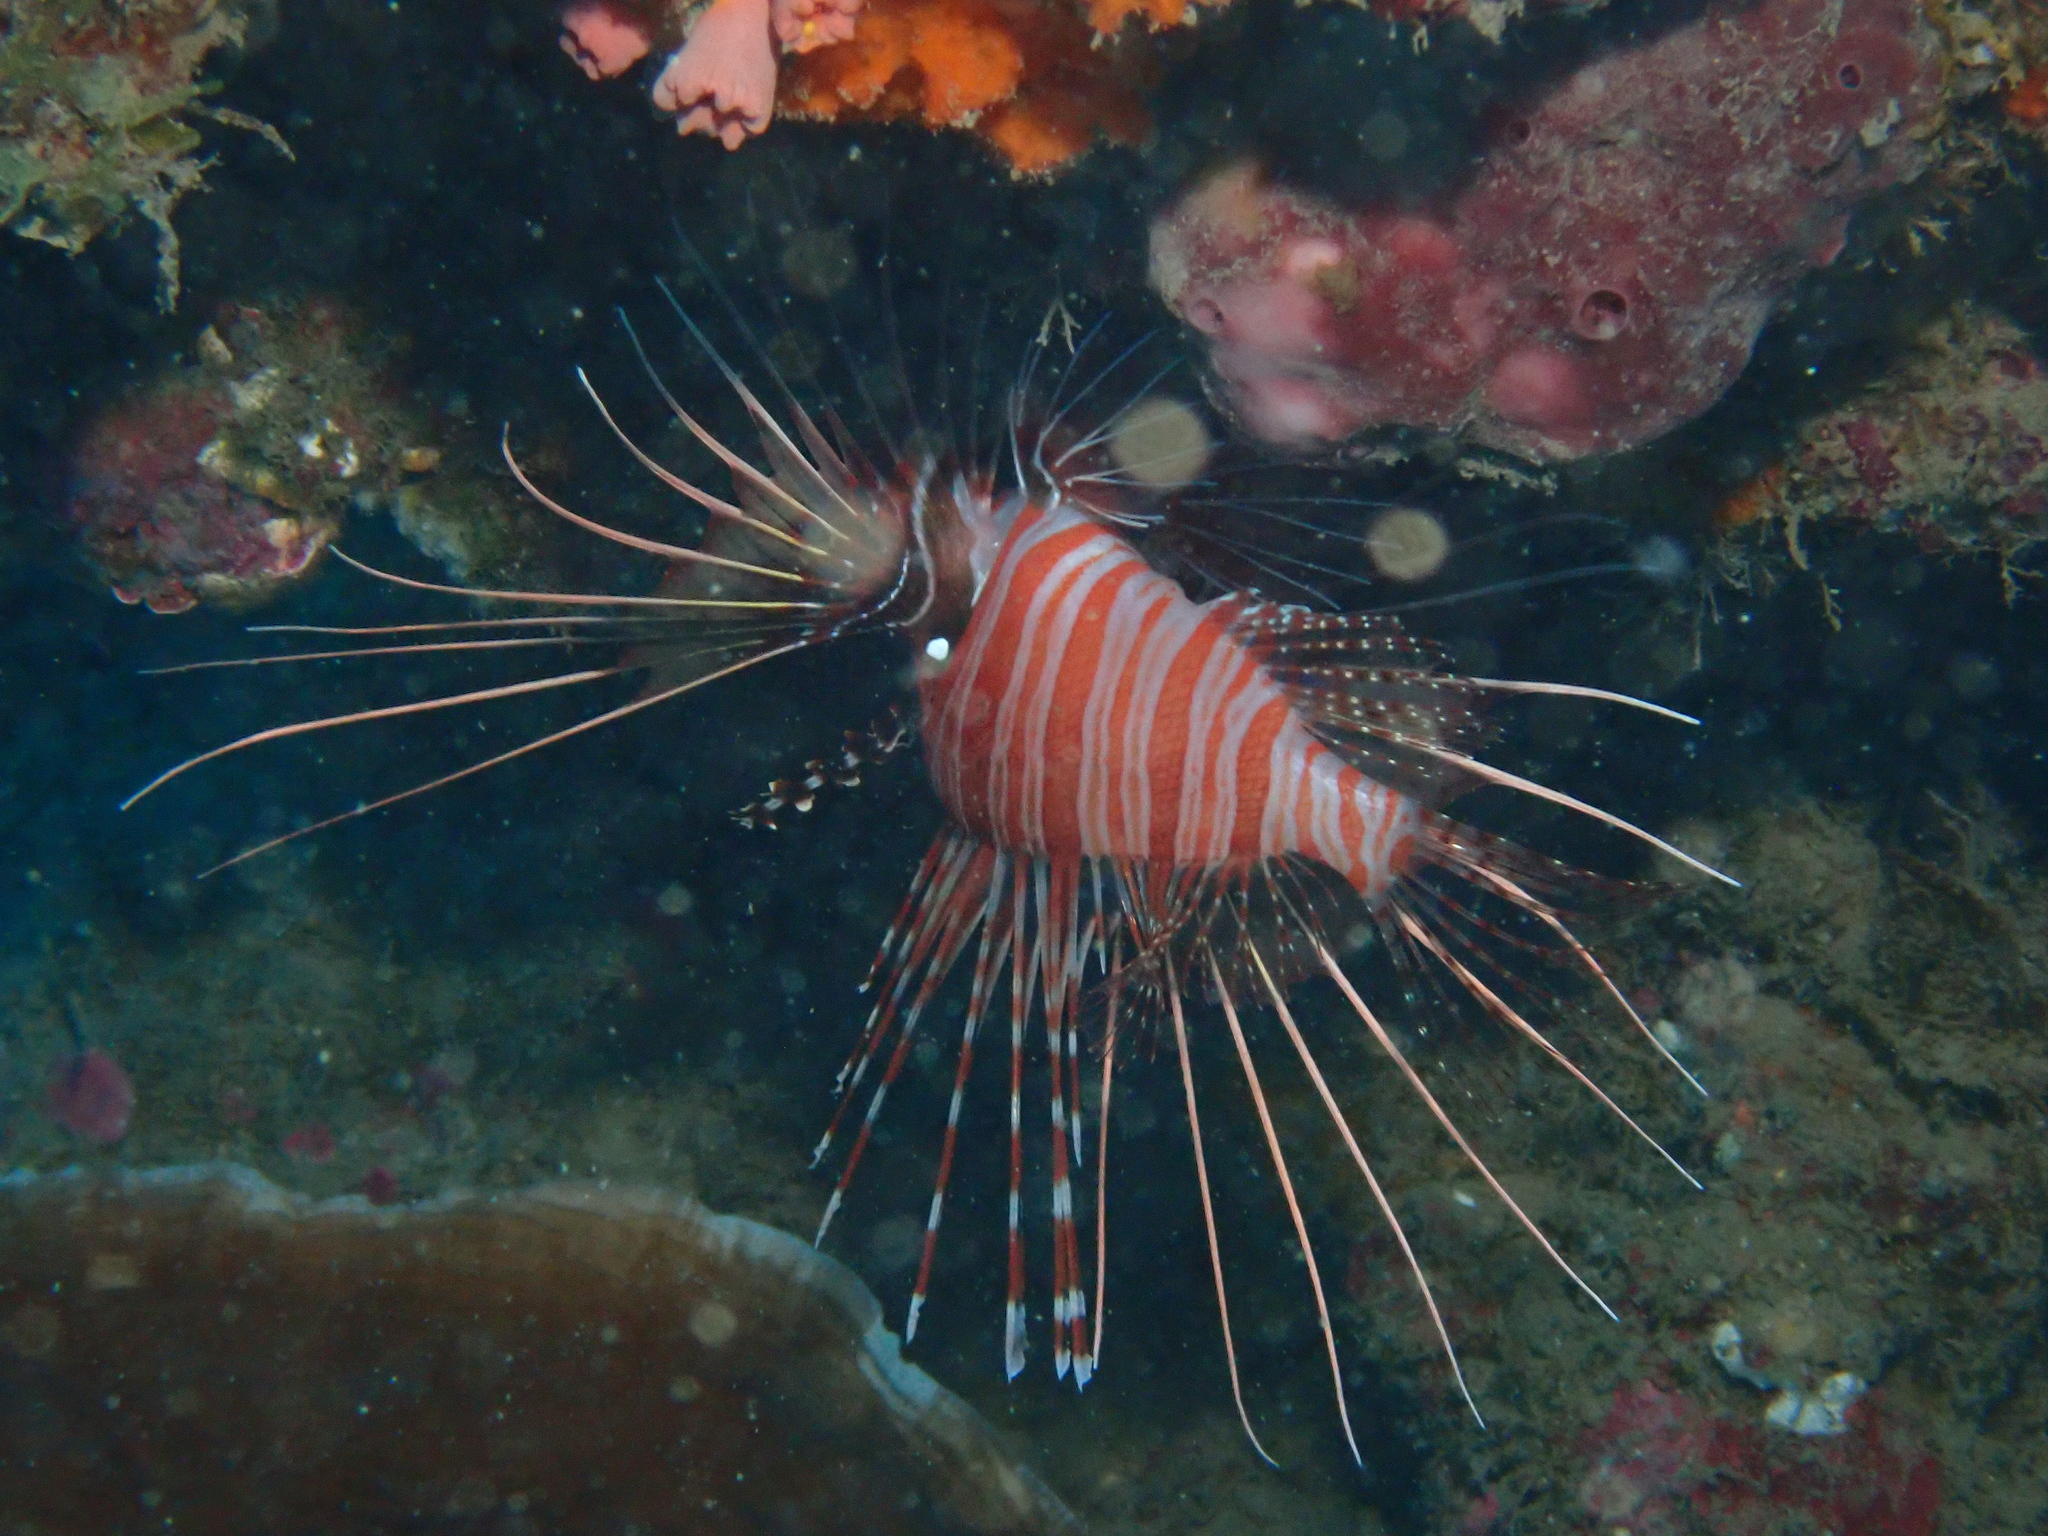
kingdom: Animalia
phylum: Chordata
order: Scorpaeniformes
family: Scorpaenidae
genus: Pterois
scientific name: Pterois antennata
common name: Spotfin lionfish
